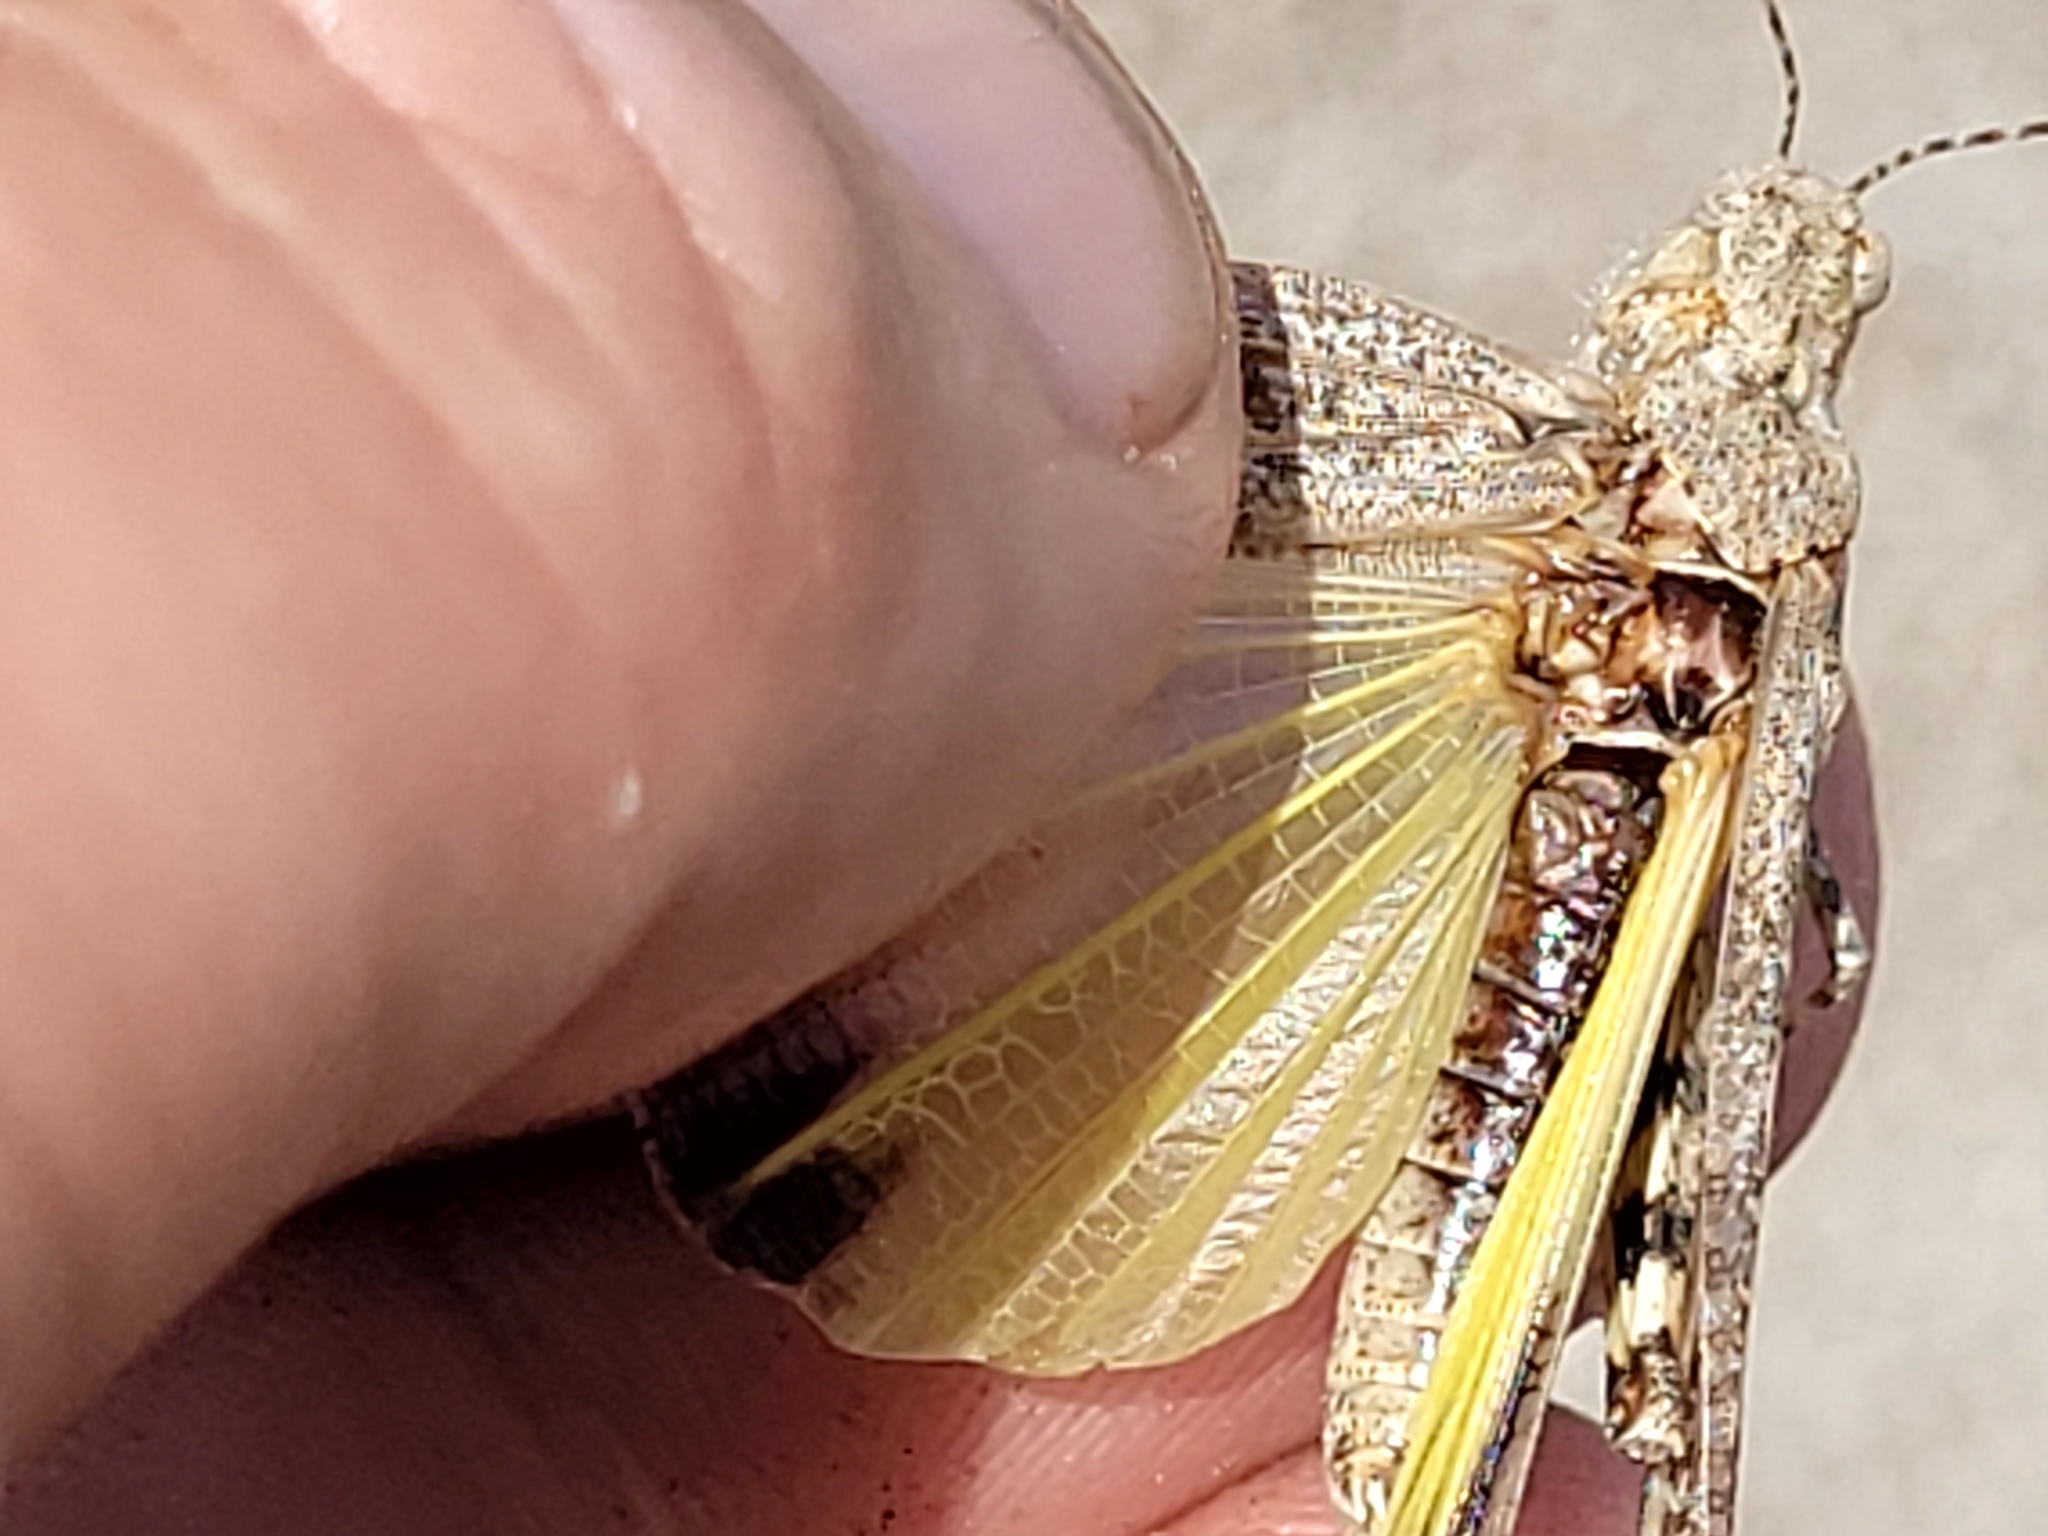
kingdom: Animalia
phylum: Arthropoda
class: Insecta
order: Orthoptera
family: Acrididae
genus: Circotettix
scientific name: Circotettix rabula
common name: Wrangler grasshopper
